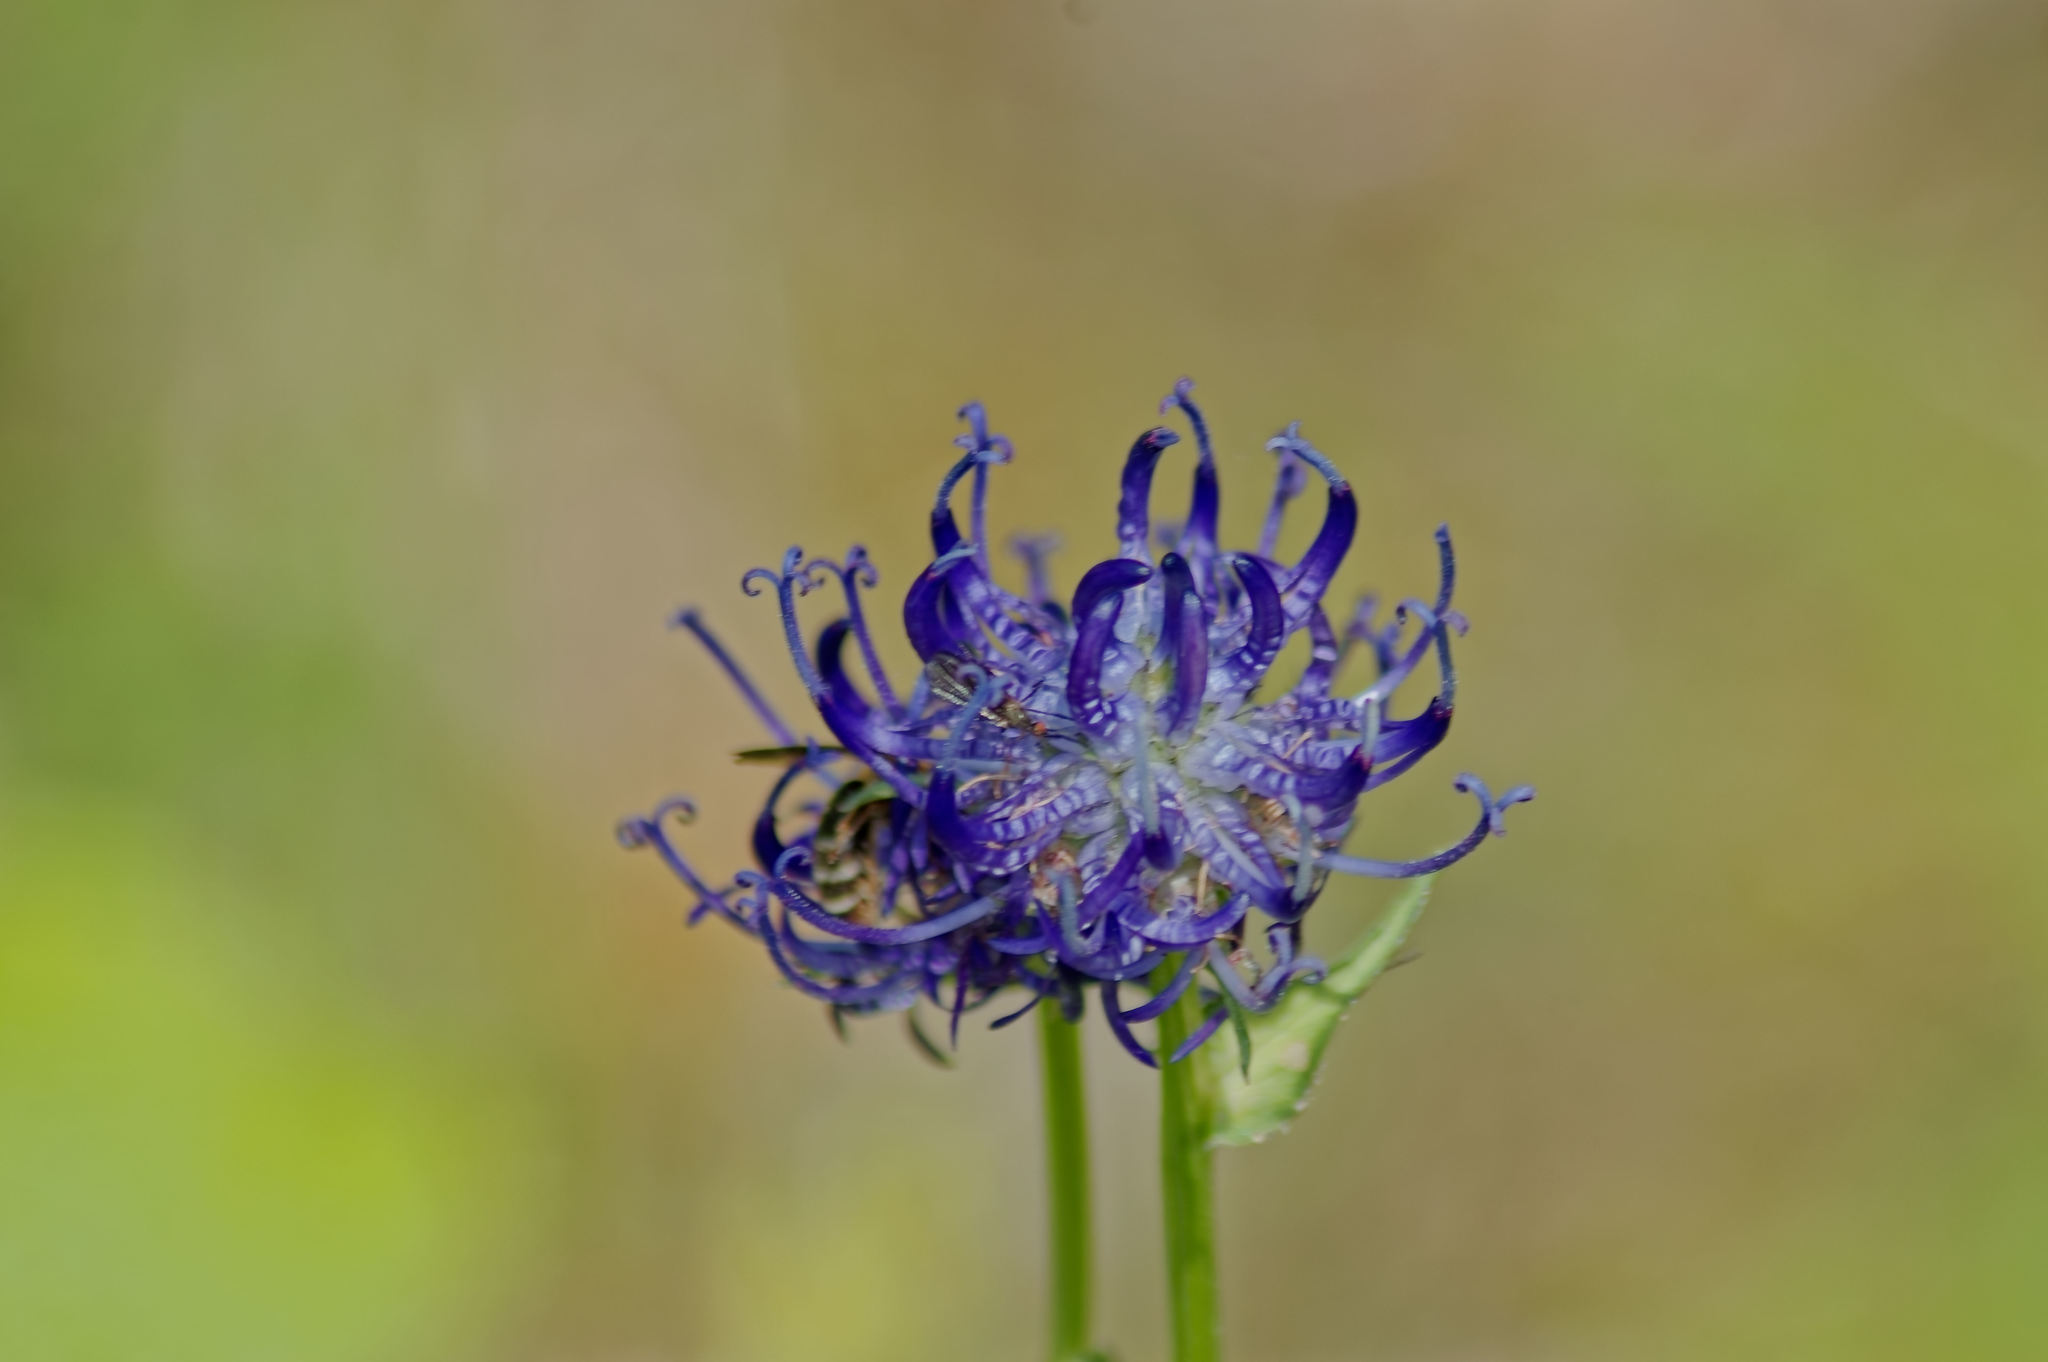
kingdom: Plantae
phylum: Tracheophyta
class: Magnoliopsida
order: Asterales
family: Campanulaceae
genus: Phyteuma
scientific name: Phyteuma orbiculare
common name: Round-headed rampion
